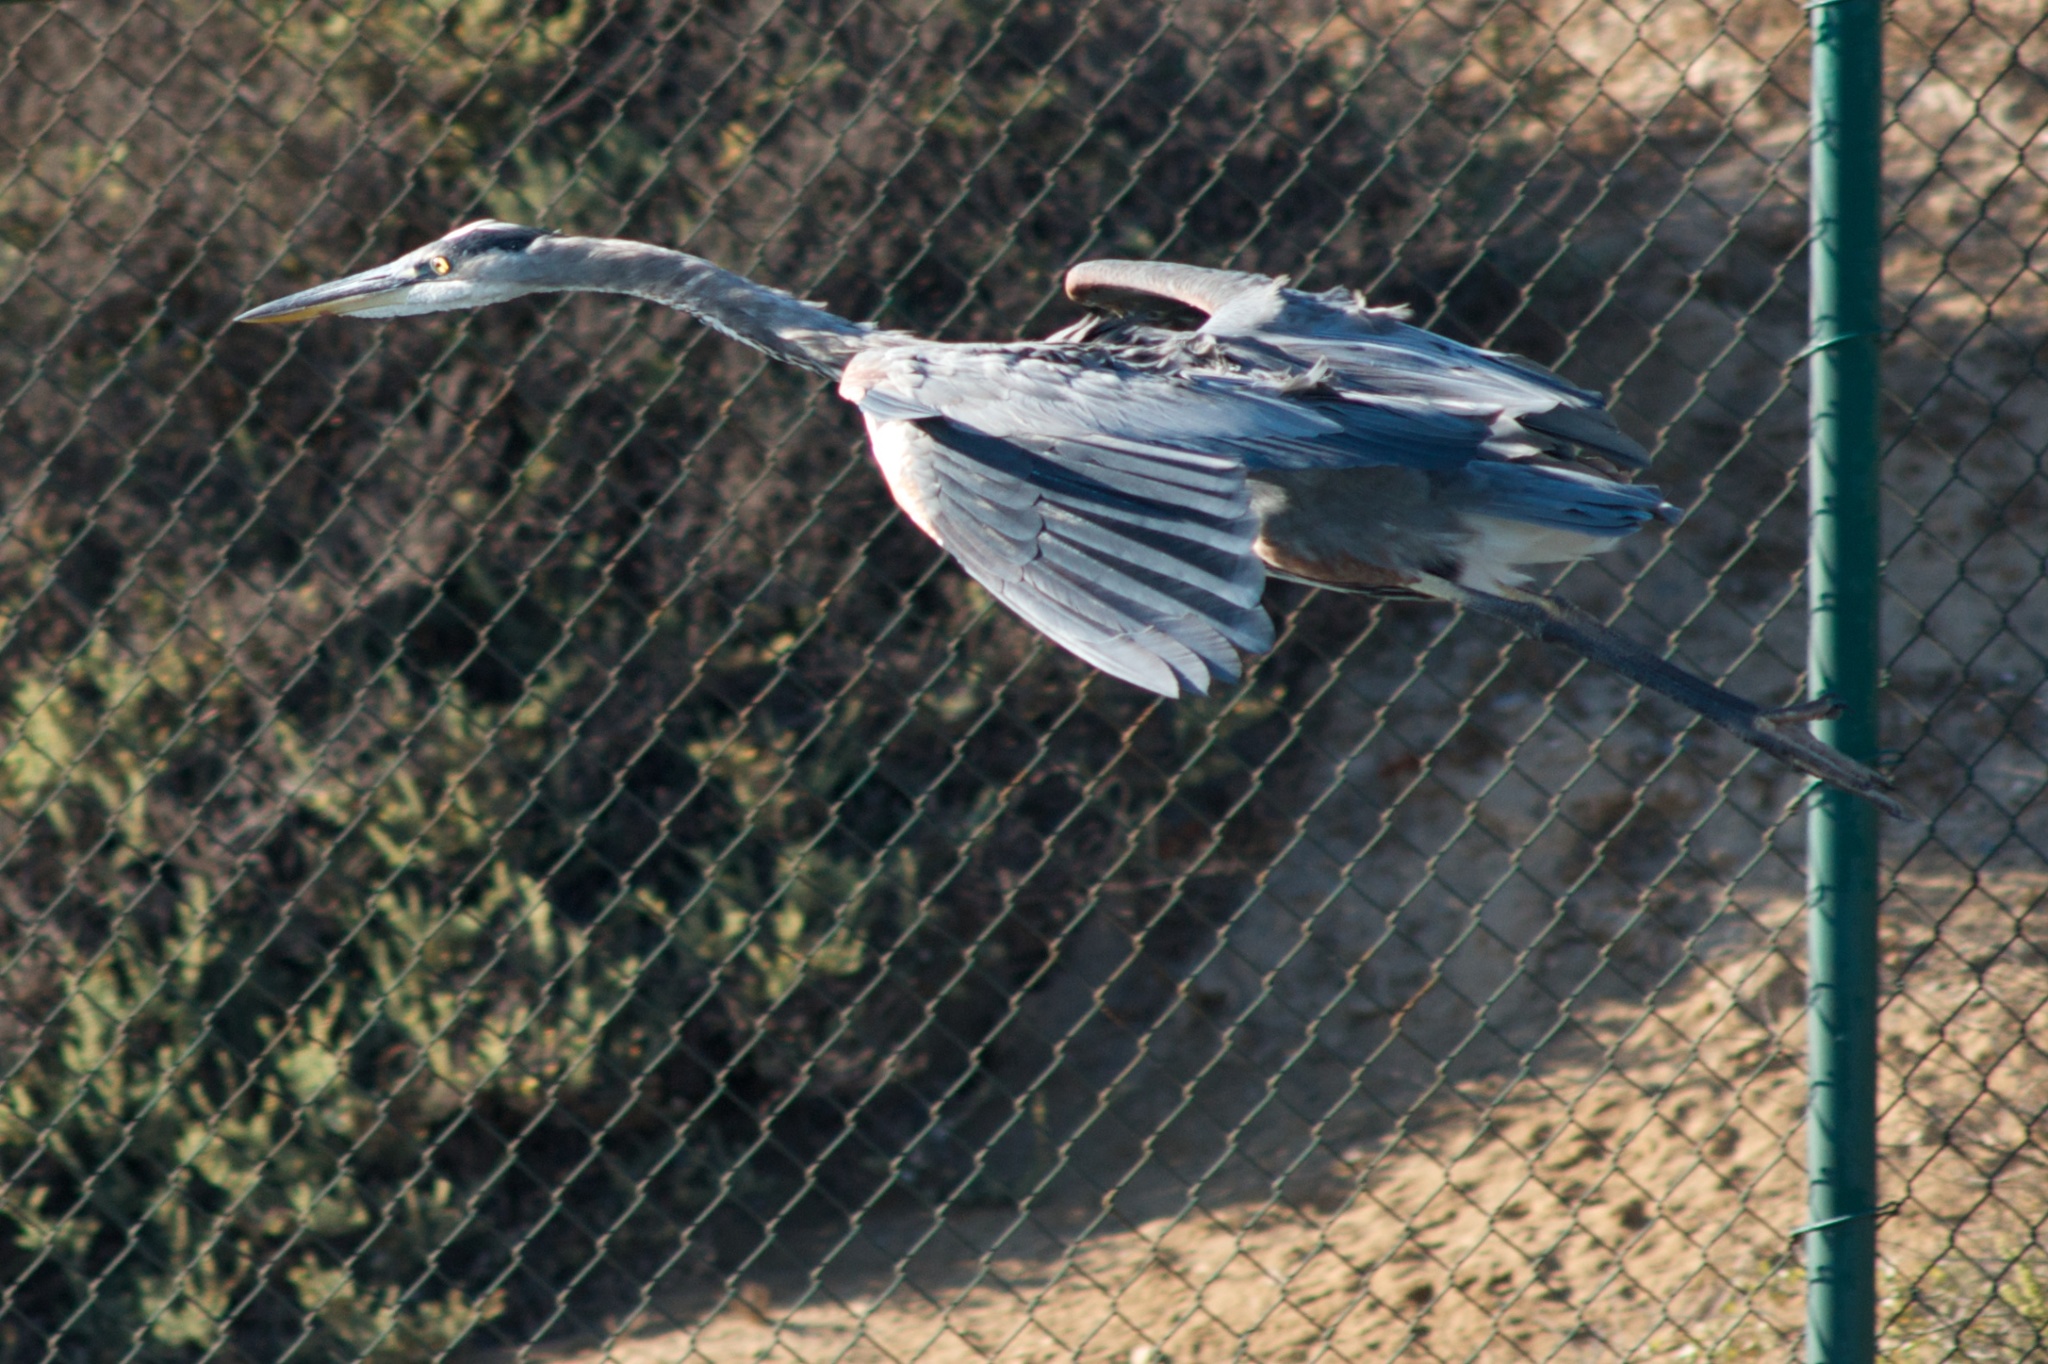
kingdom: Animalia
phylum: Chordata
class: Aves
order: Pelecaniformes
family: Ardeidae
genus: Ardea
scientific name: Ardea herodias
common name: Great blue heron
